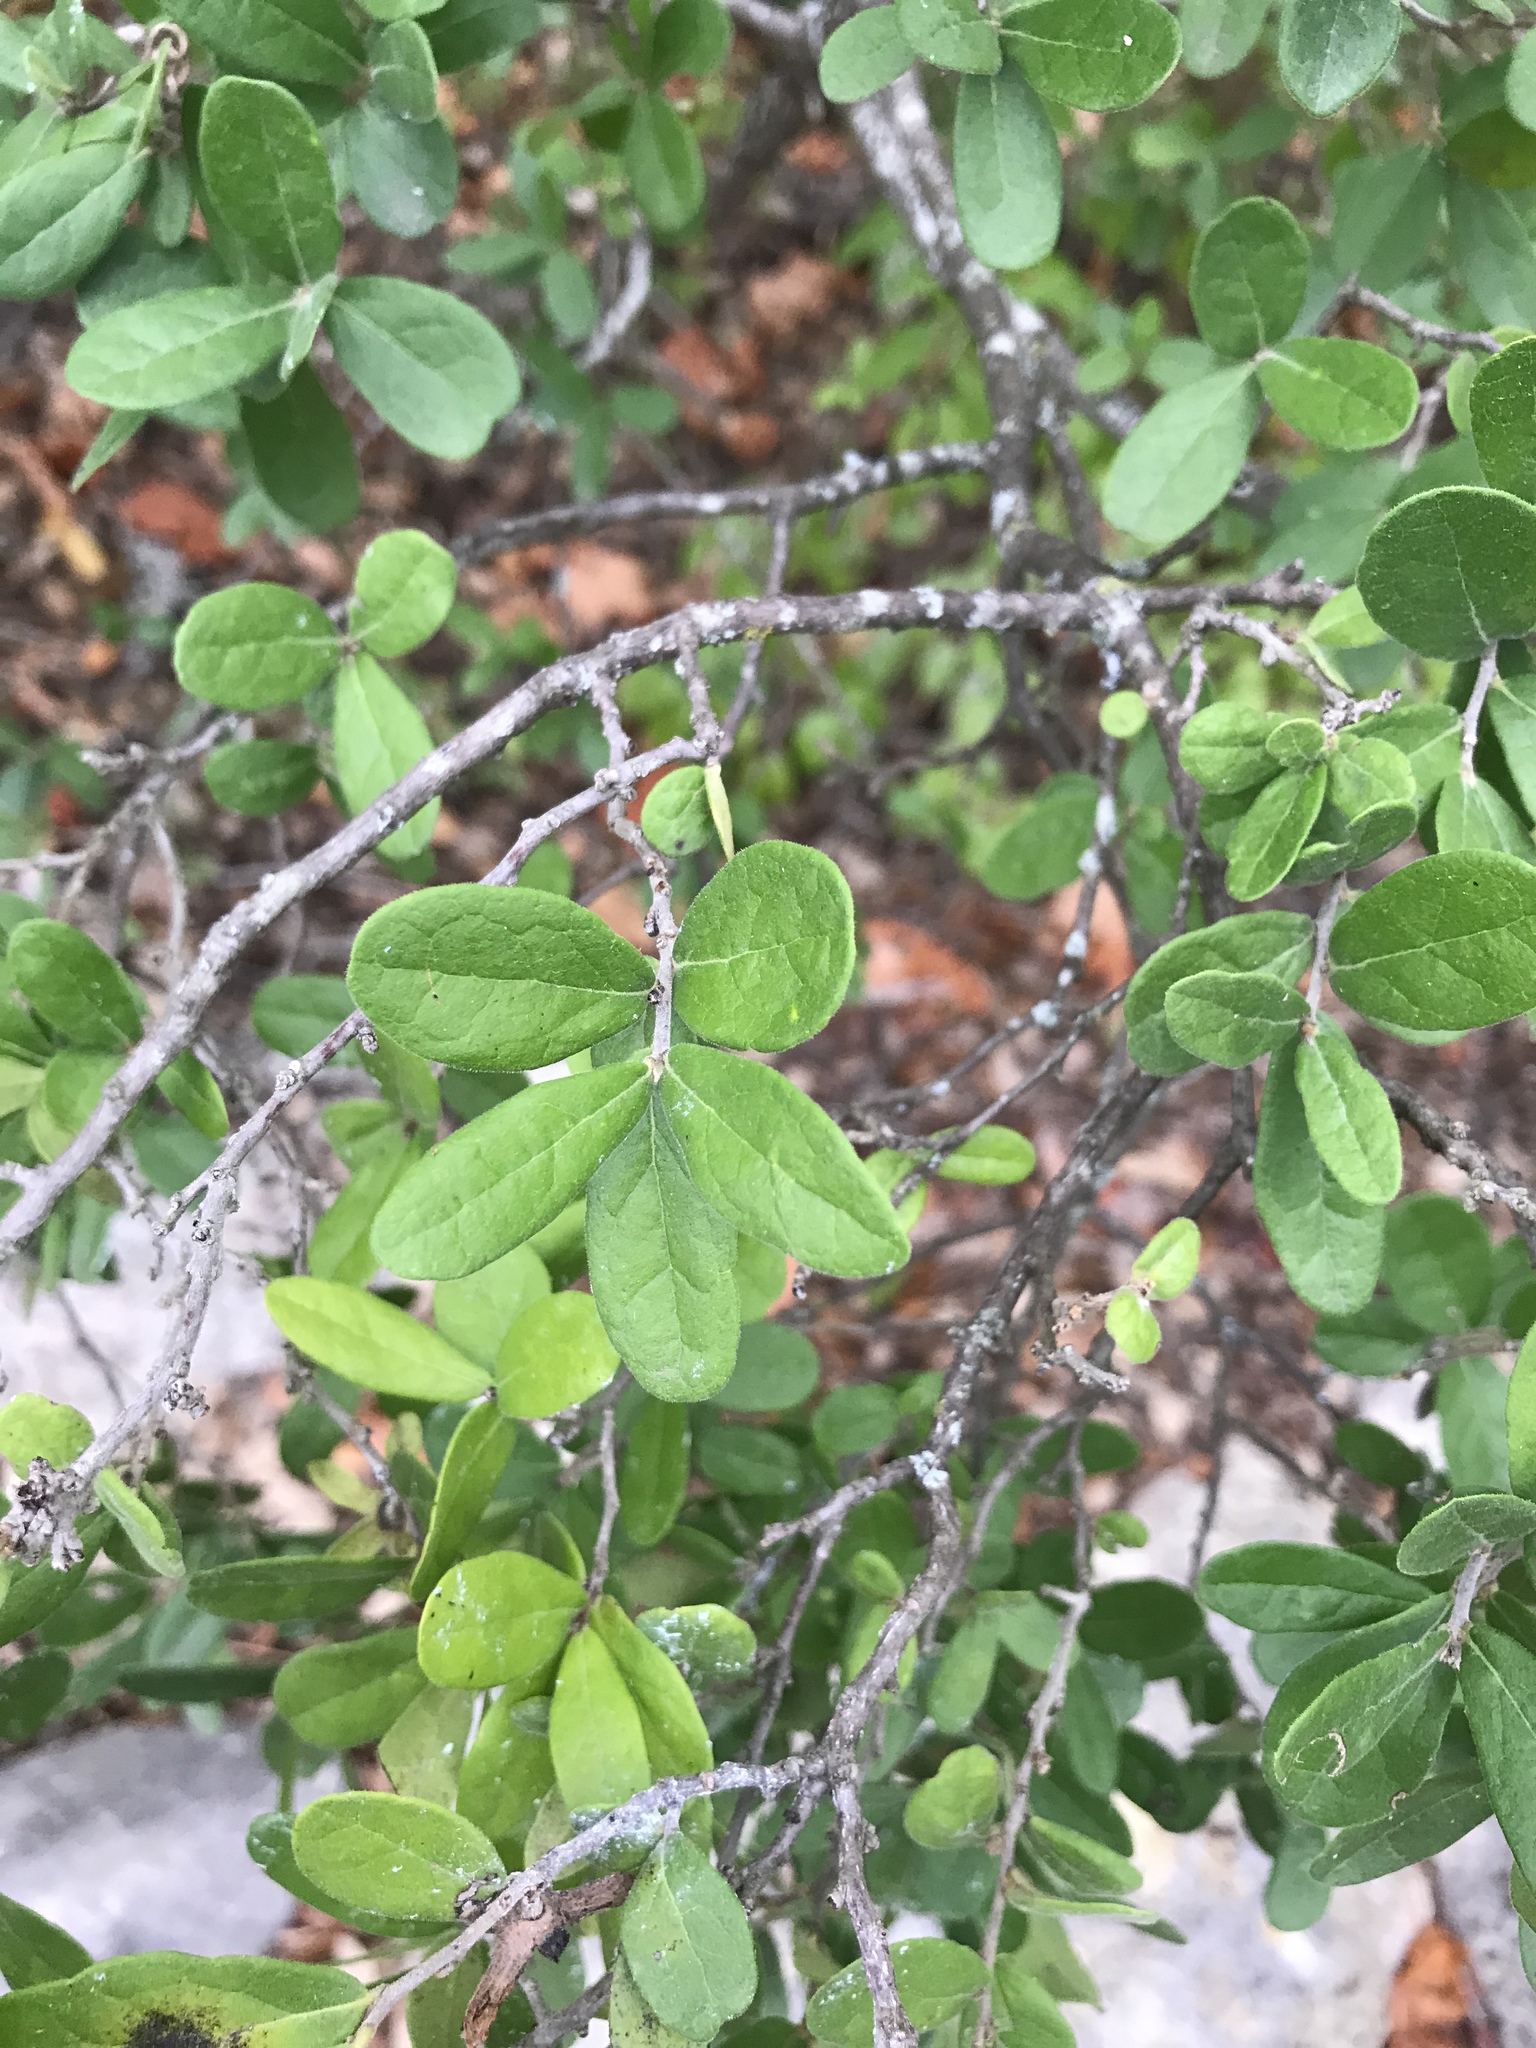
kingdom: Plantae
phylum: Tracheophyta
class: Magnoliopsida
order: Ericales
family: Ebenaceae
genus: Diospyros
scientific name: Diospyros texana
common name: Texas persimmon
